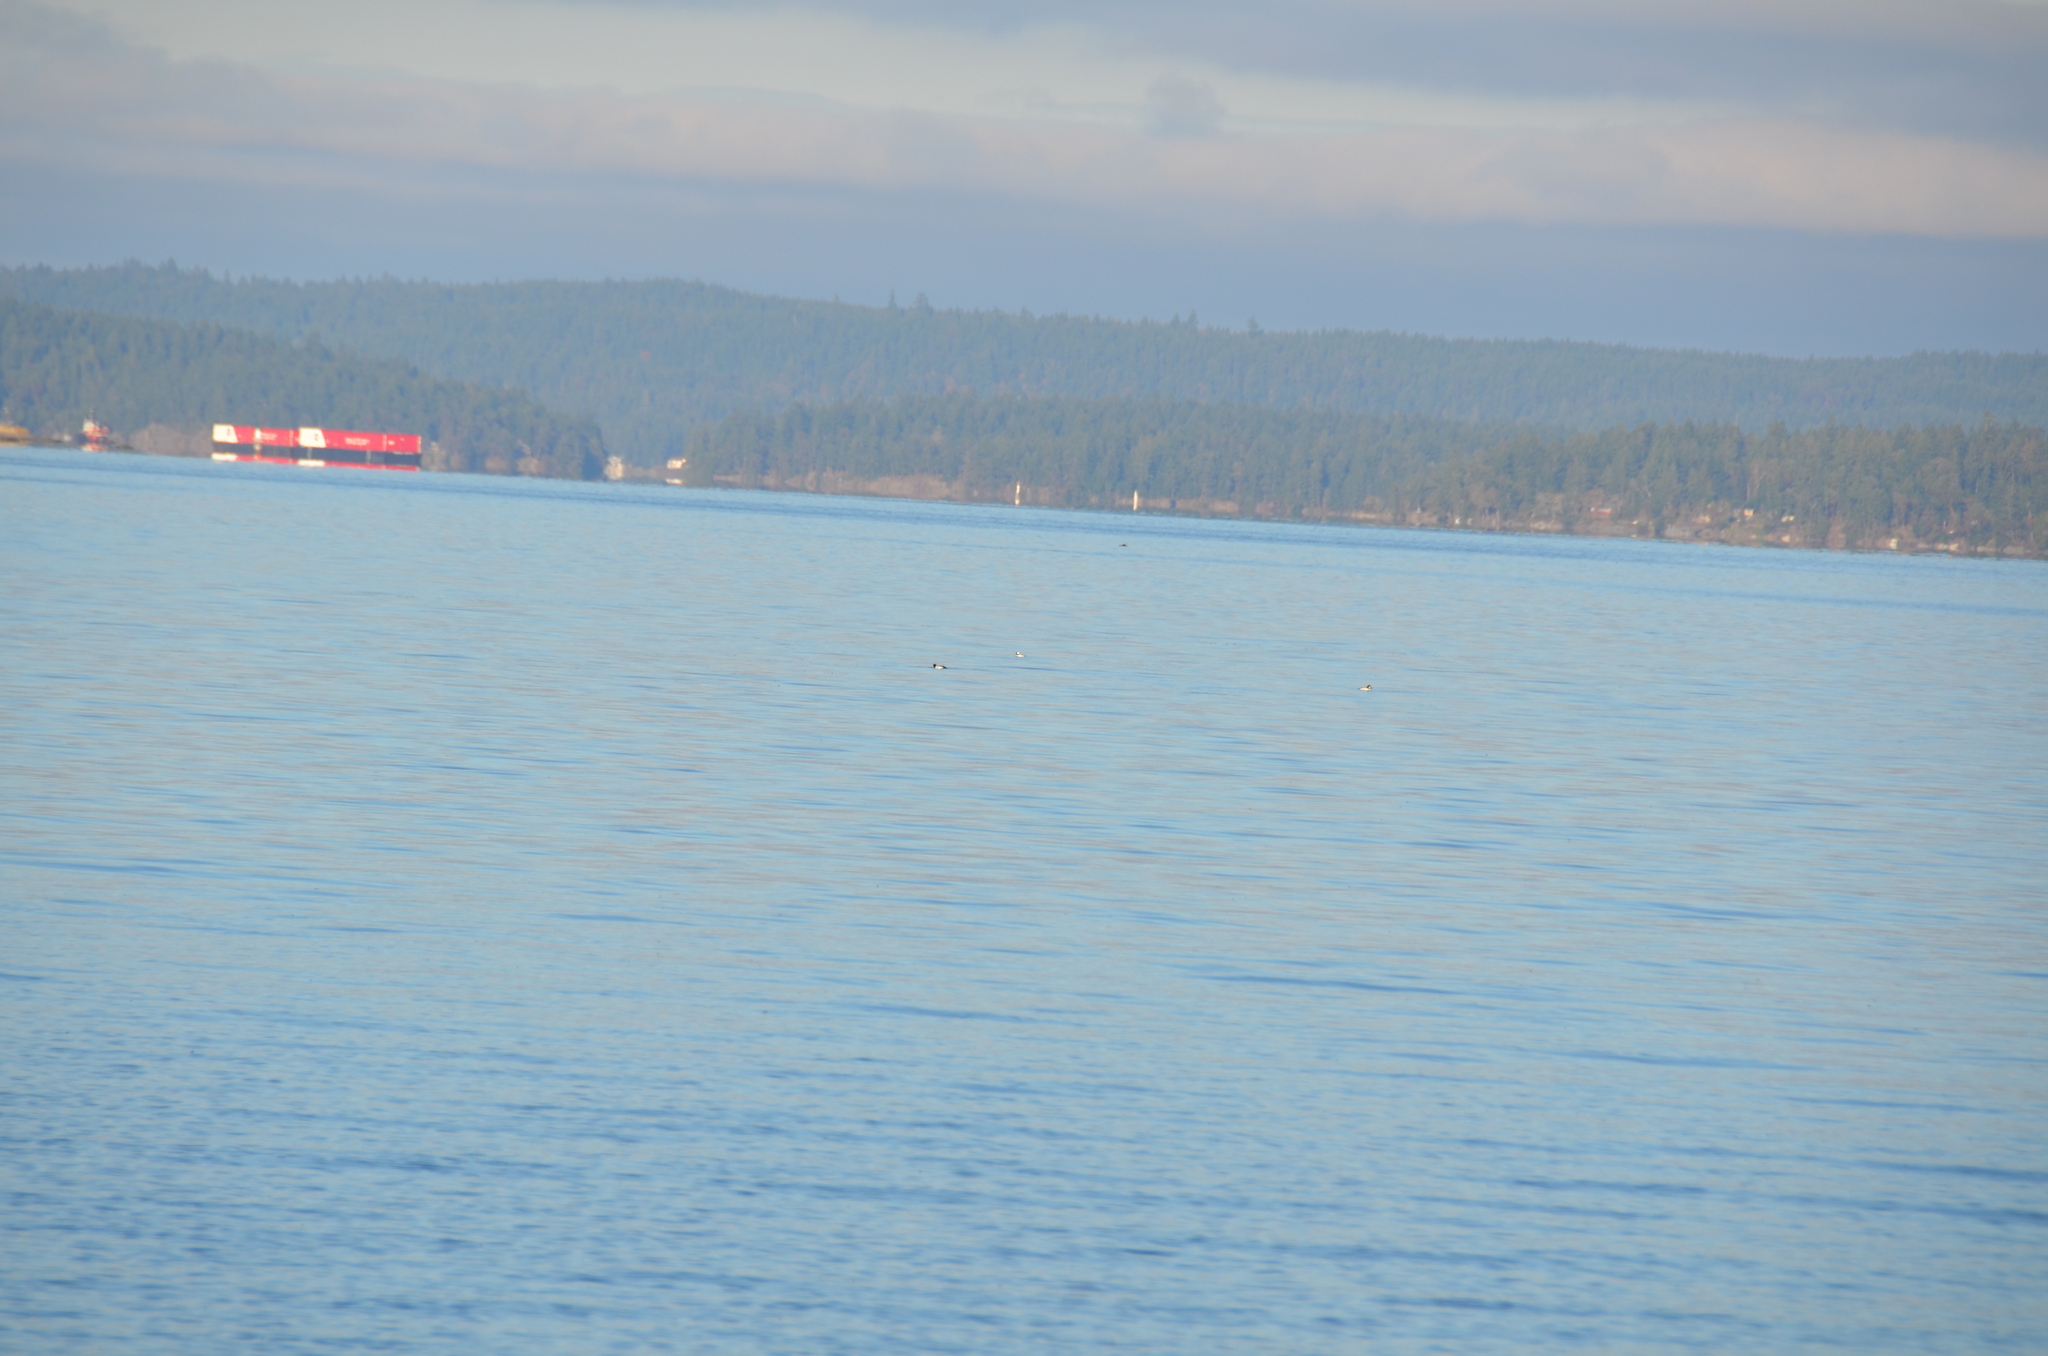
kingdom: Animalia
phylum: Chordata
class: Aves
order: Anseriformes
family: Anatidae
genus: Bucephala
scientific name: Bucephala clangula
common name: Common goldeneye
